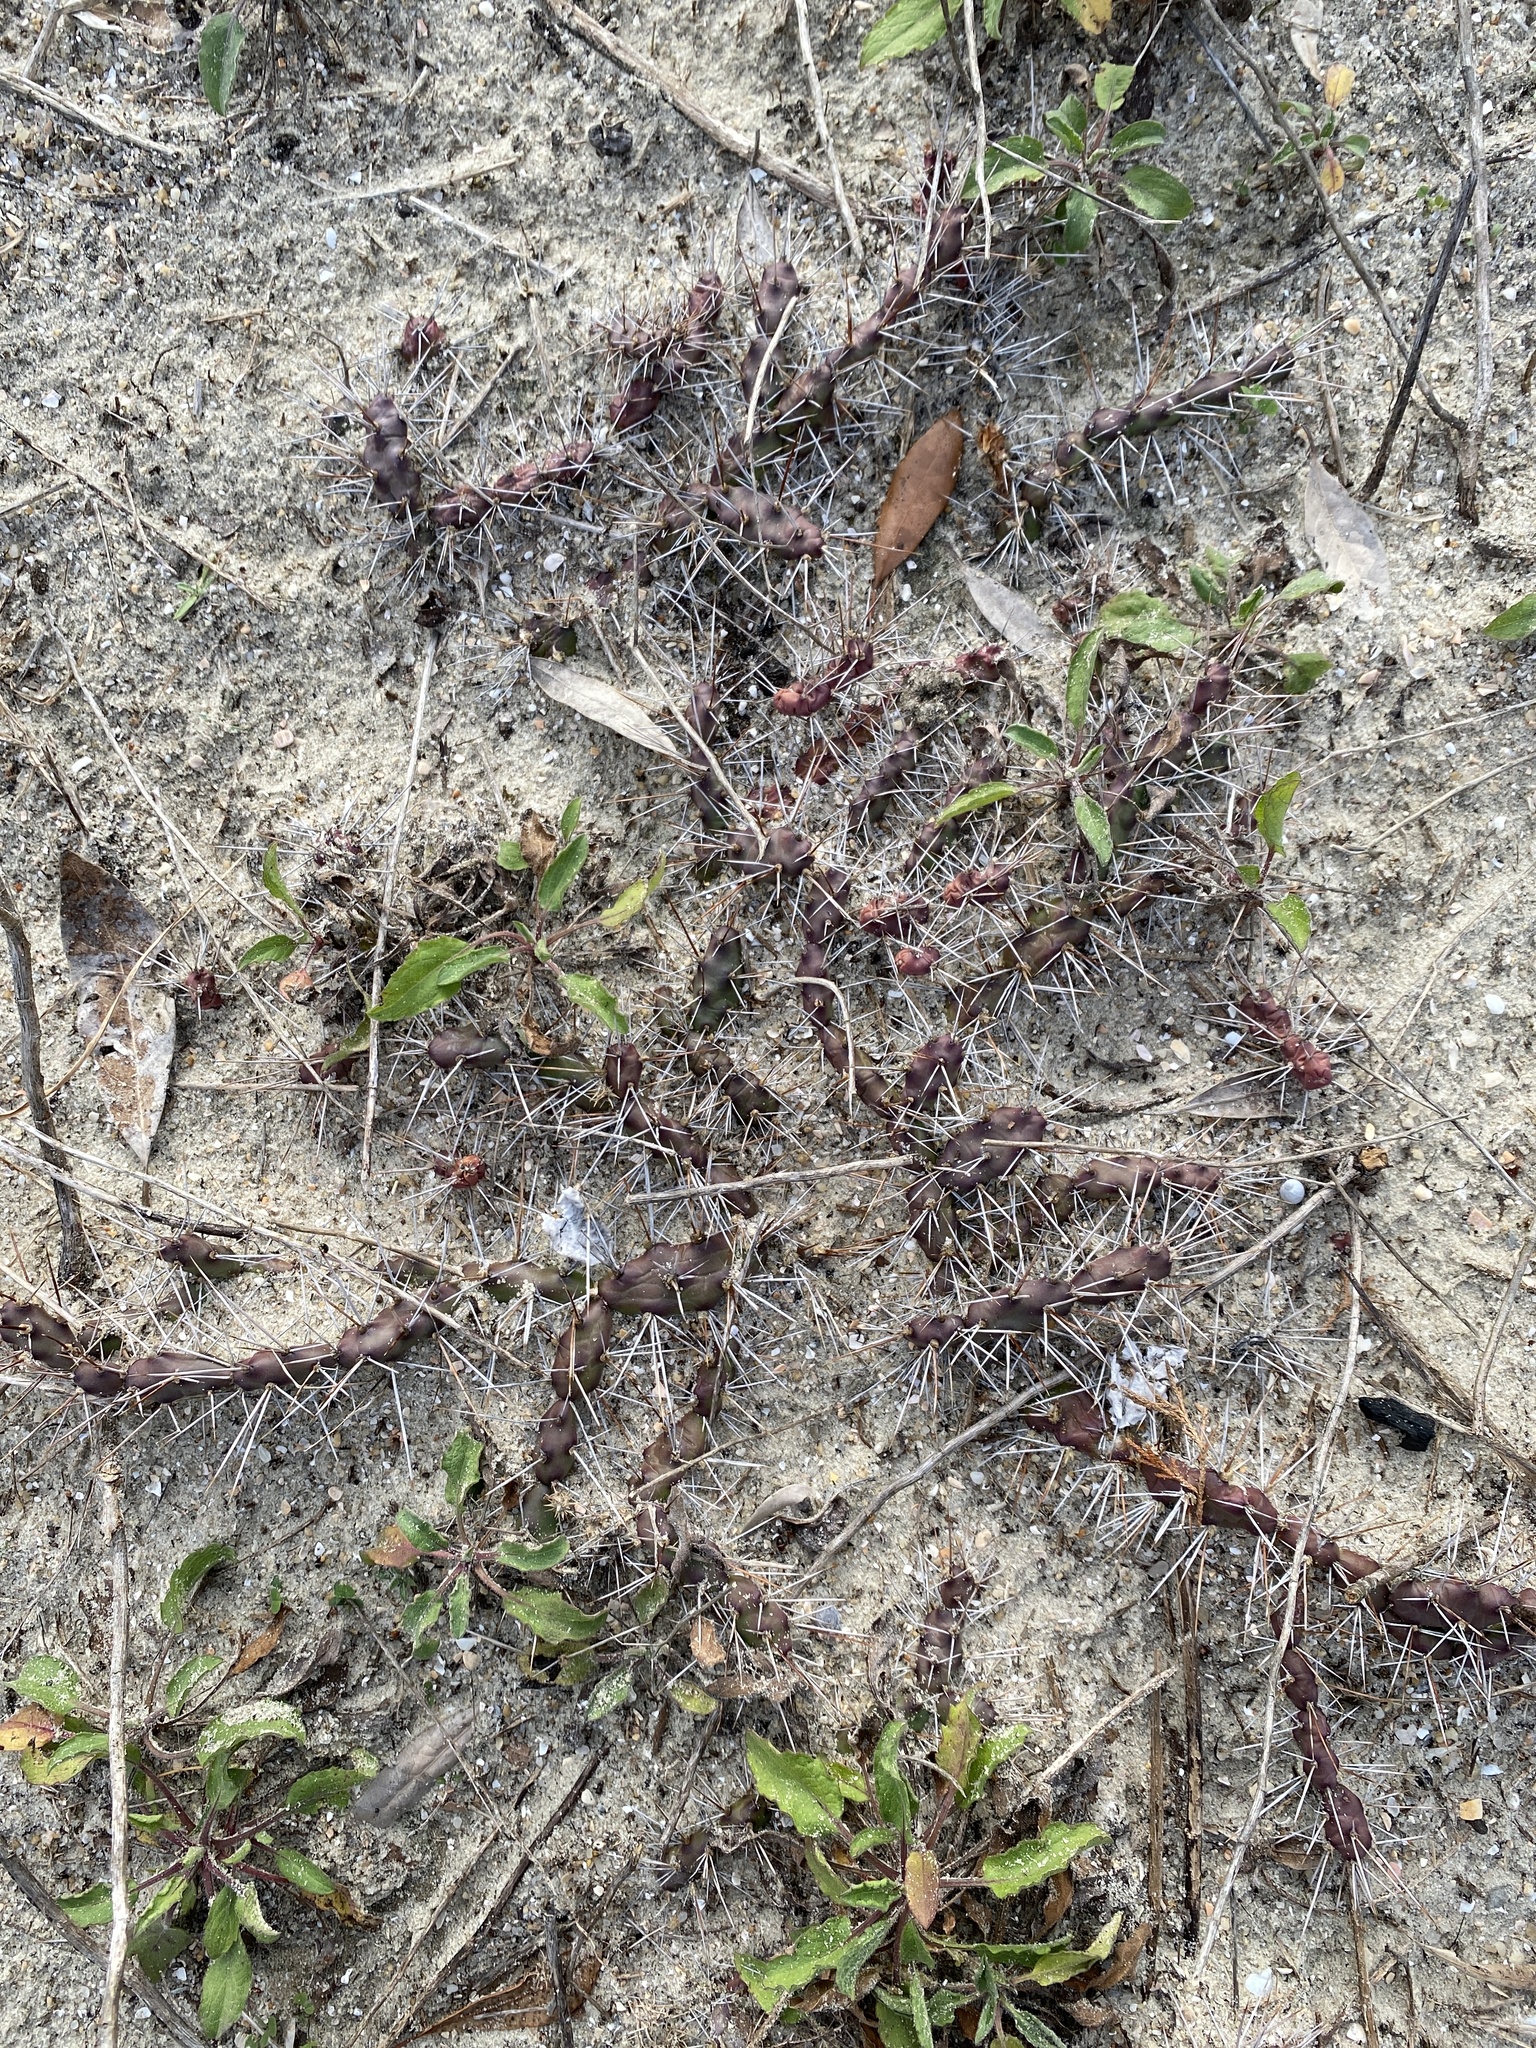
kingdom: Plantae
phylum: Tracheophyta
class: Magnoliopsida
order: Caryophyllales
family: Cactaceae
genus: Opuntia
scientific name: Opuntia drummondii
